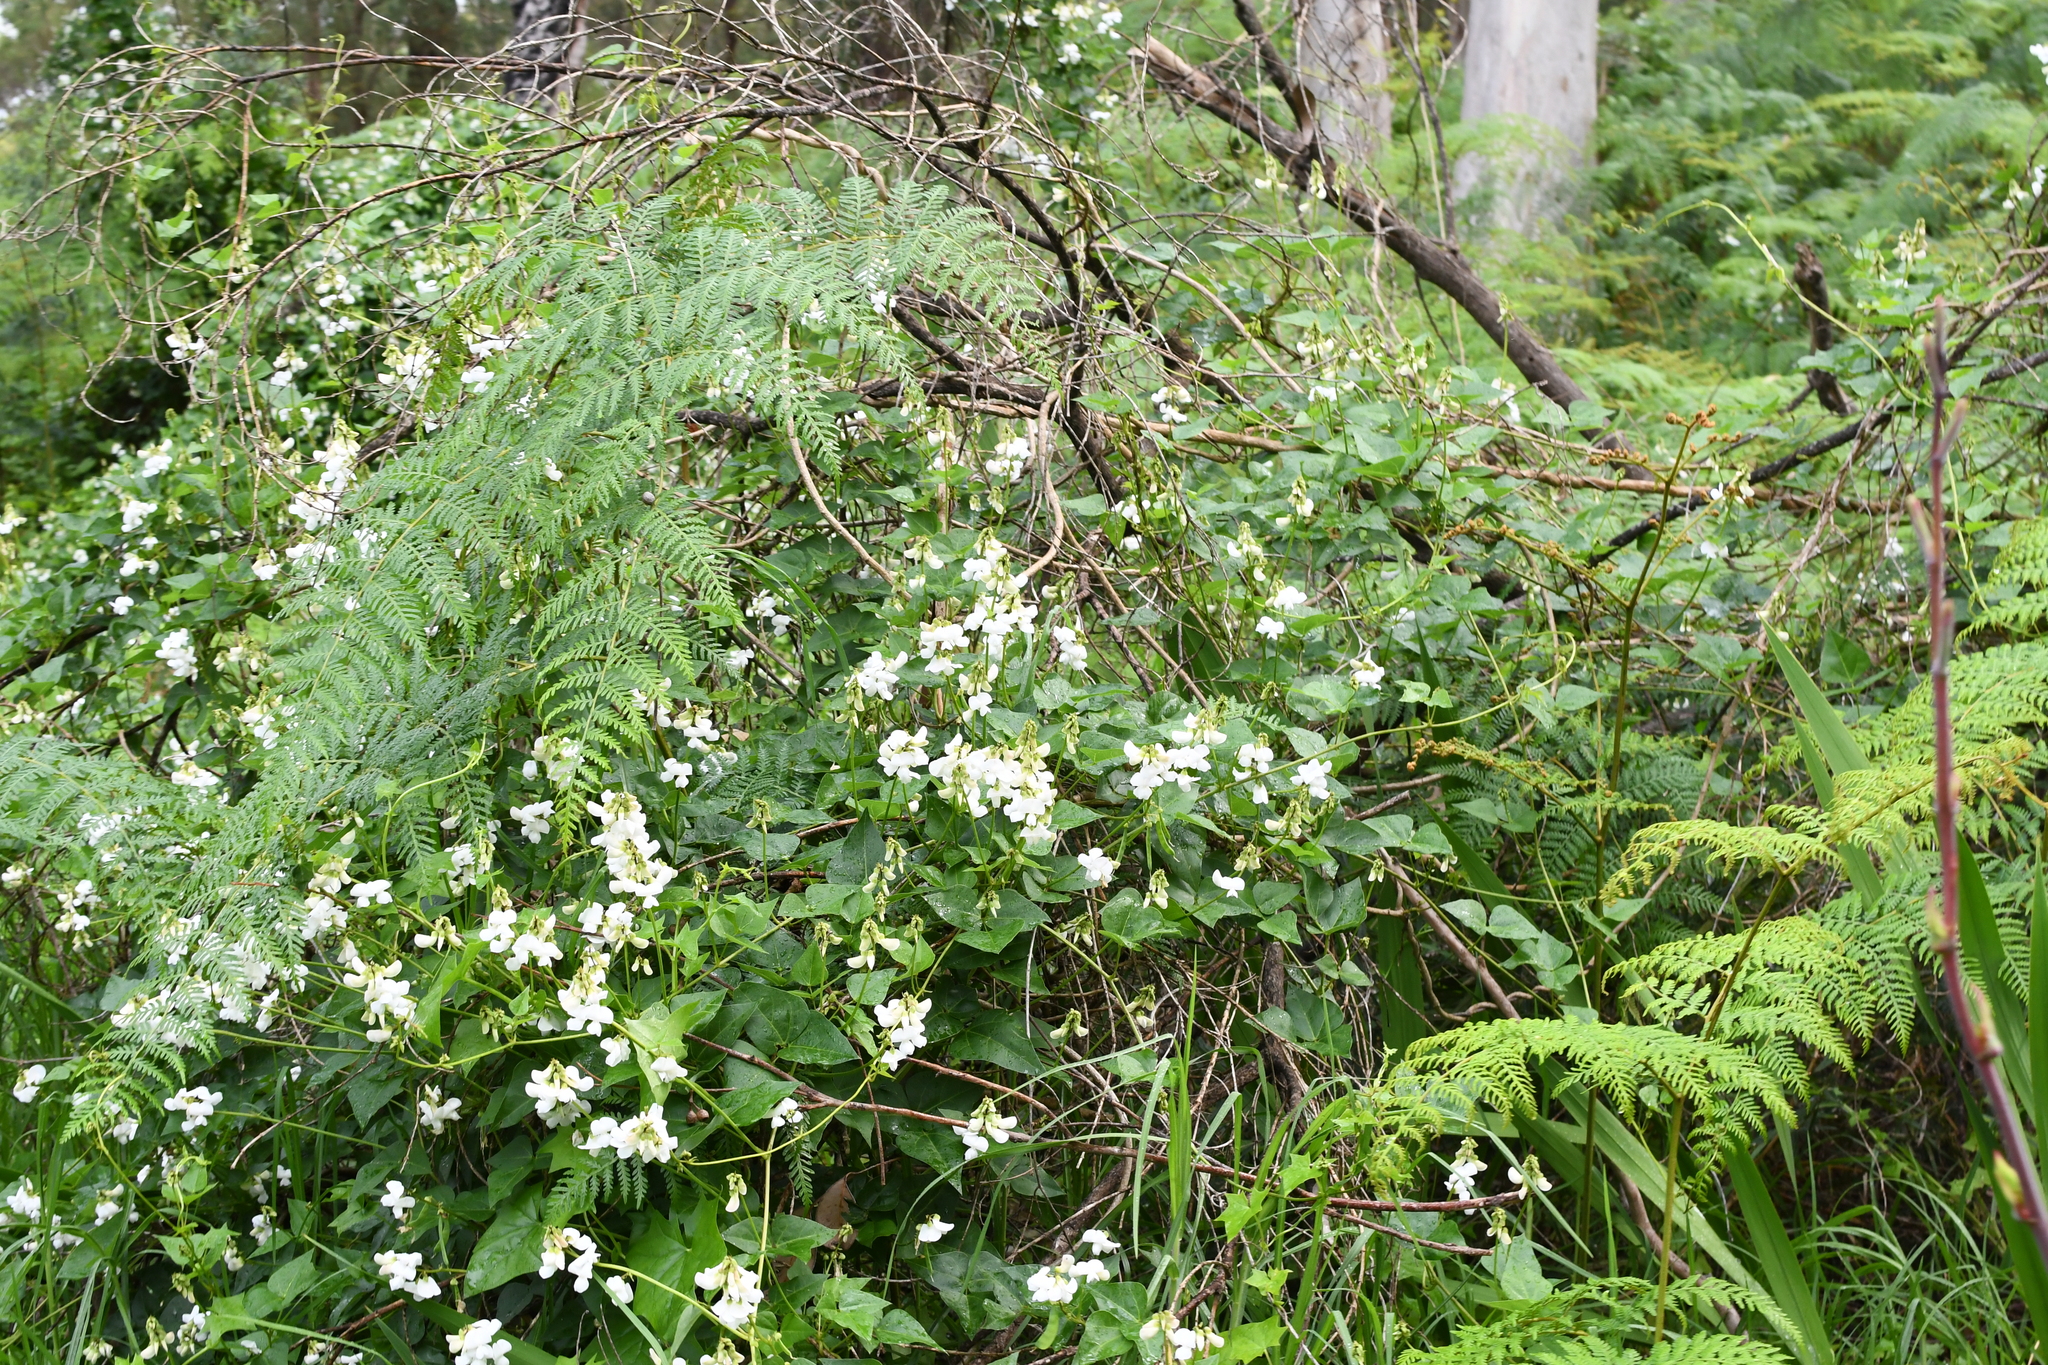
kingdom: Plantae
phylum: Tracheophyta
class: Magnoliopsida
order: Fabales
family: Fabaceae
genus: Dipogon
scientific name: Dipogon lignosus
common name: Okie bean
